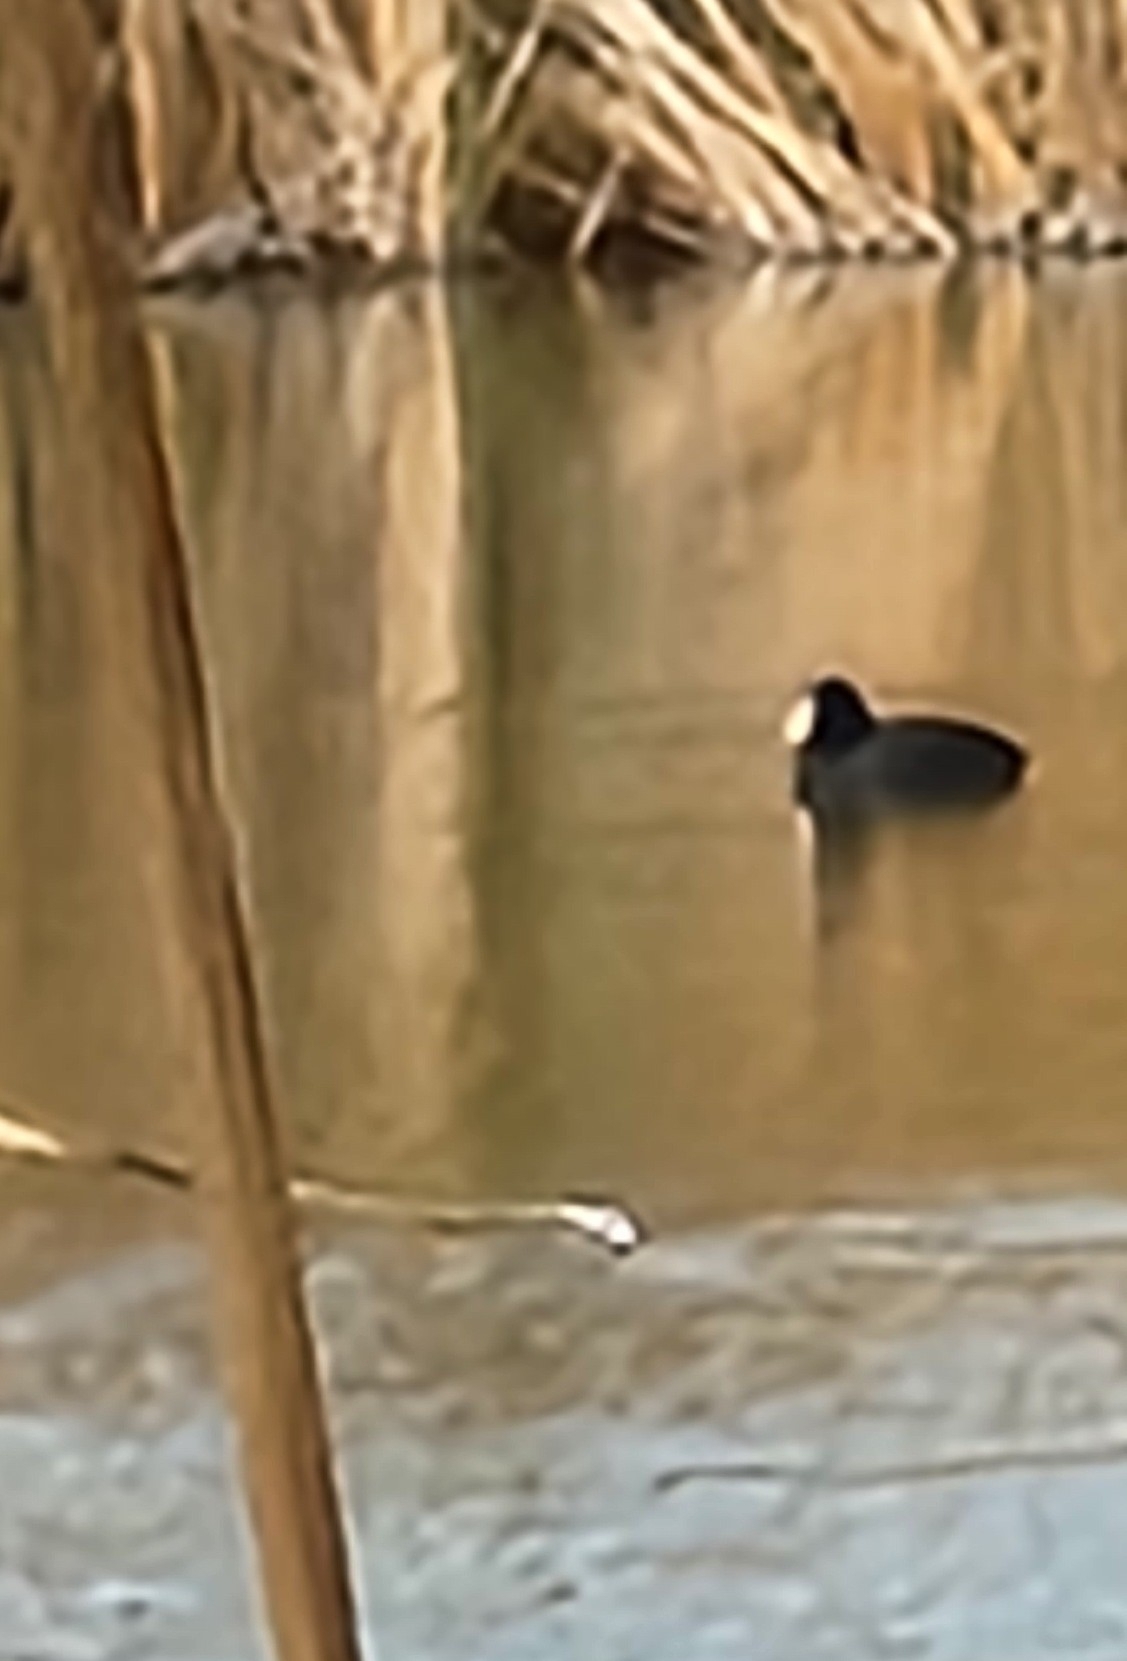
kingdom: Animalia
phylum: Chordata
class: Aves
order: Gruiformes
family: Rallidae
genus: Fulica
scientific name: Fulica americana
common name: American coot
